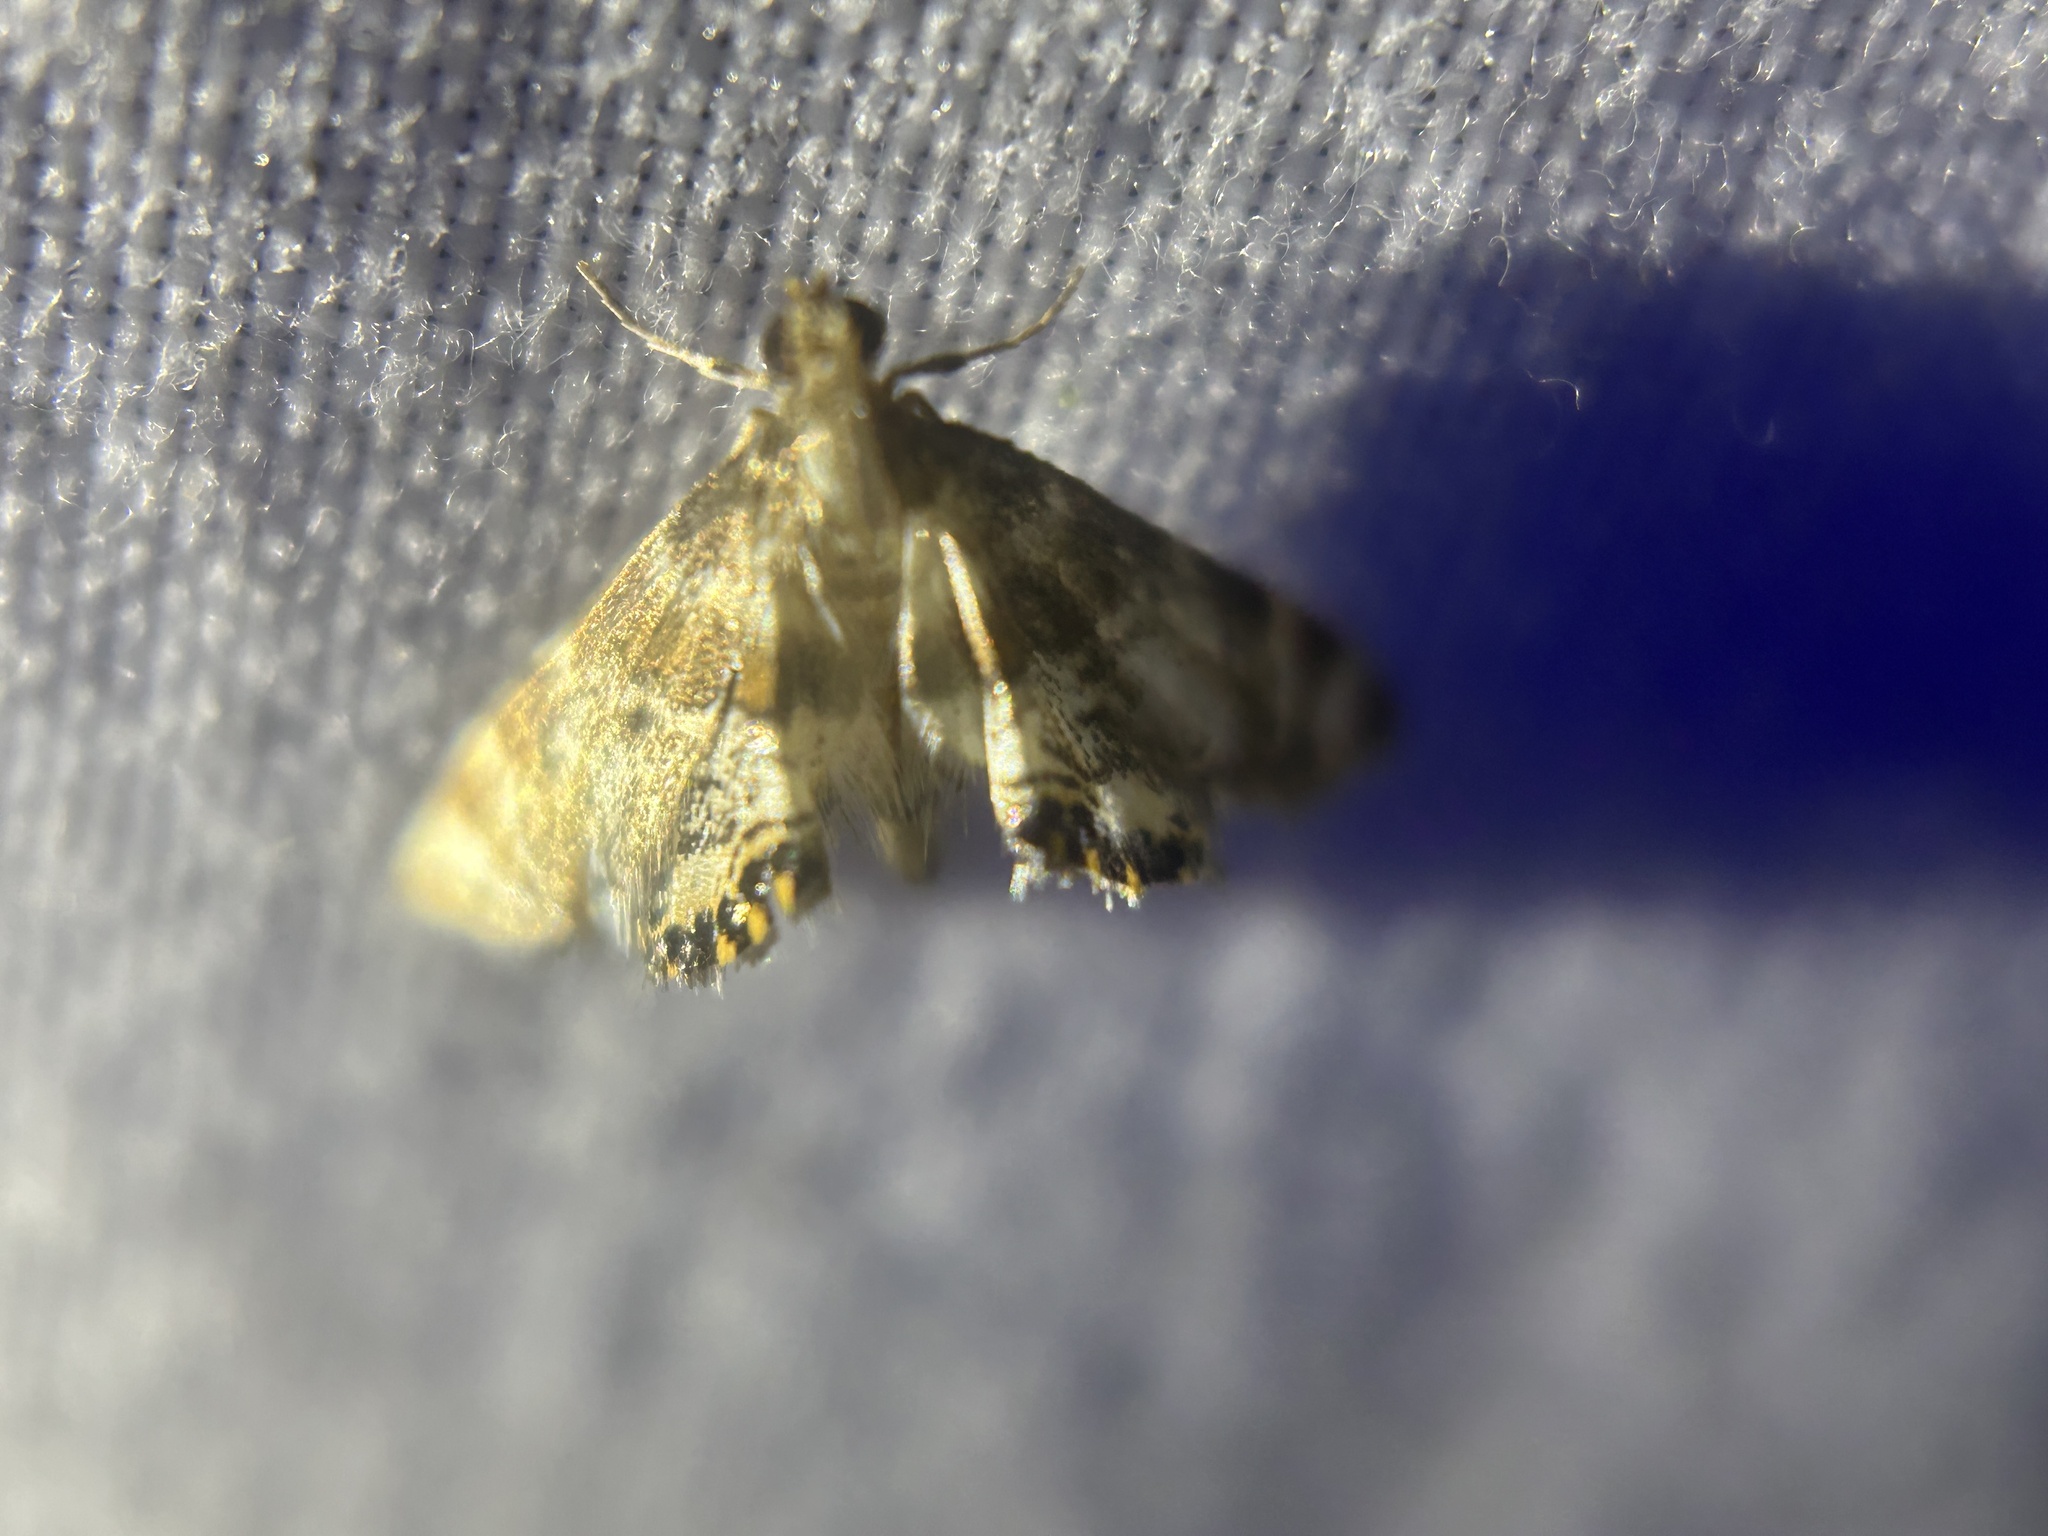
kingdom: Animalia
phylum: Arthropoda
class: Insecta
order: Lepidoptera
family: Crambidae
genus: Petrophila
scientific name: Petrophila fulicalis
